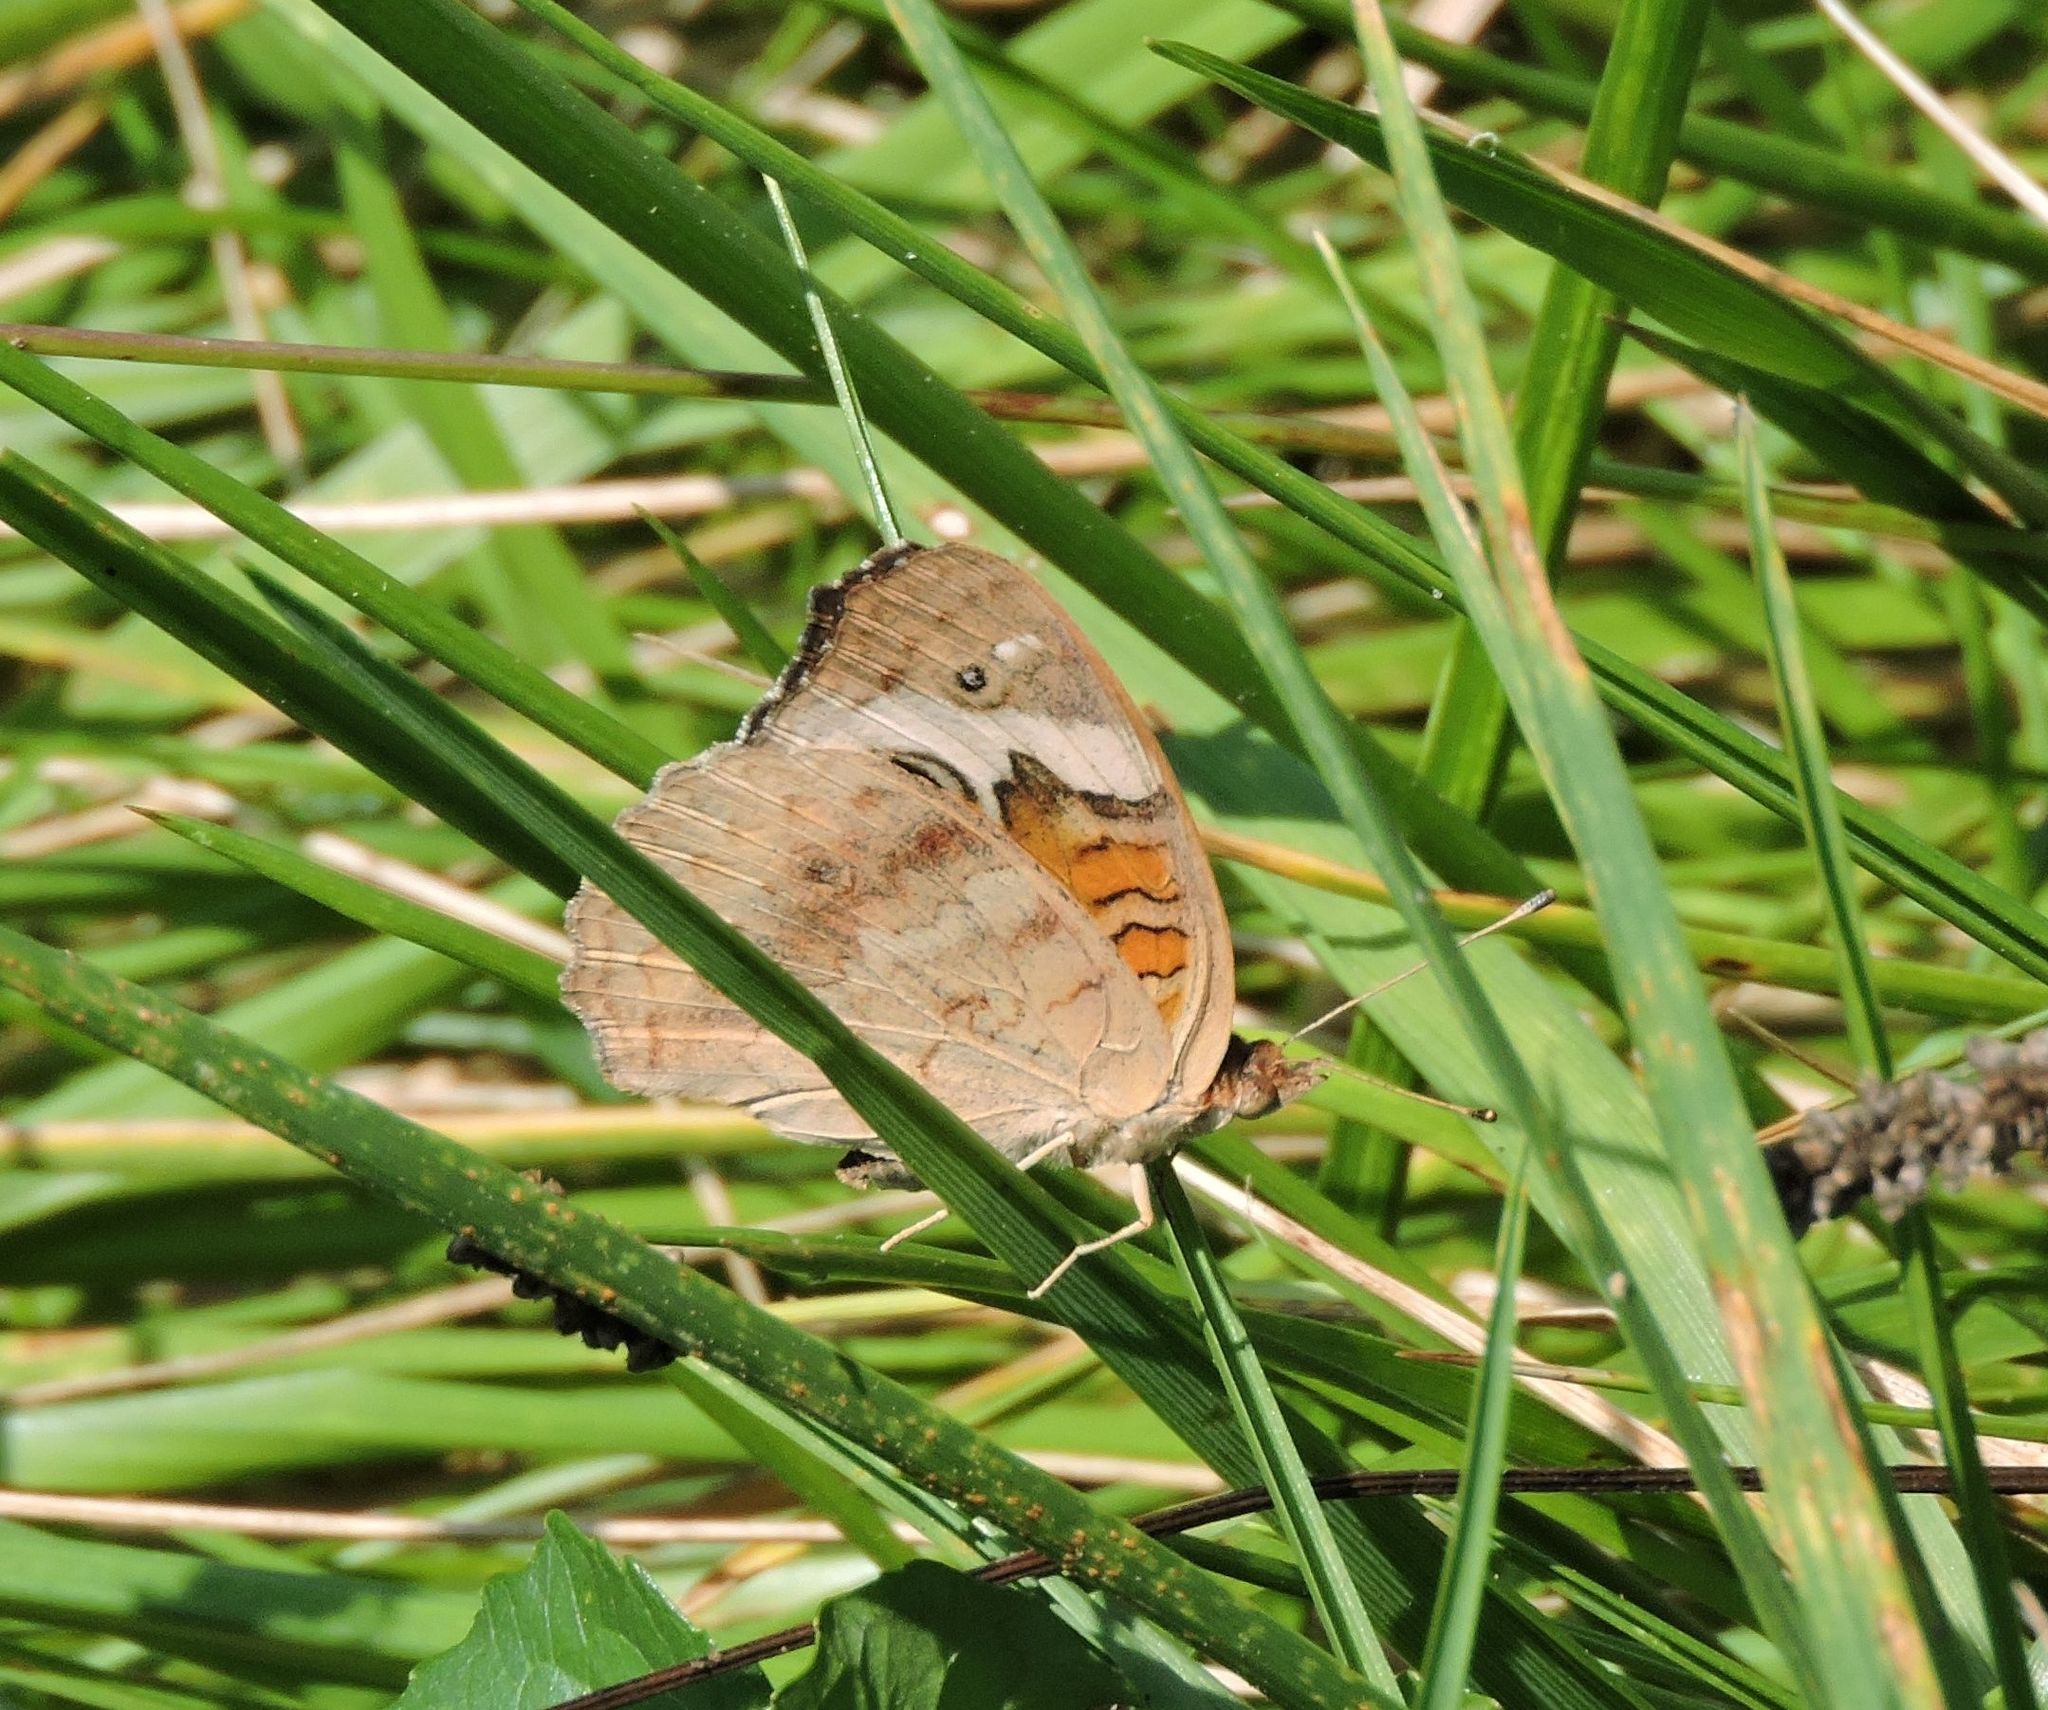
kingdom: Animalia
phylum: Arthropoda
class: Insecta
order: Lepidoptera
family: Nymphalidae
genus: Junonia
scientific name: Junonia coenia
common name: Common buckeye
